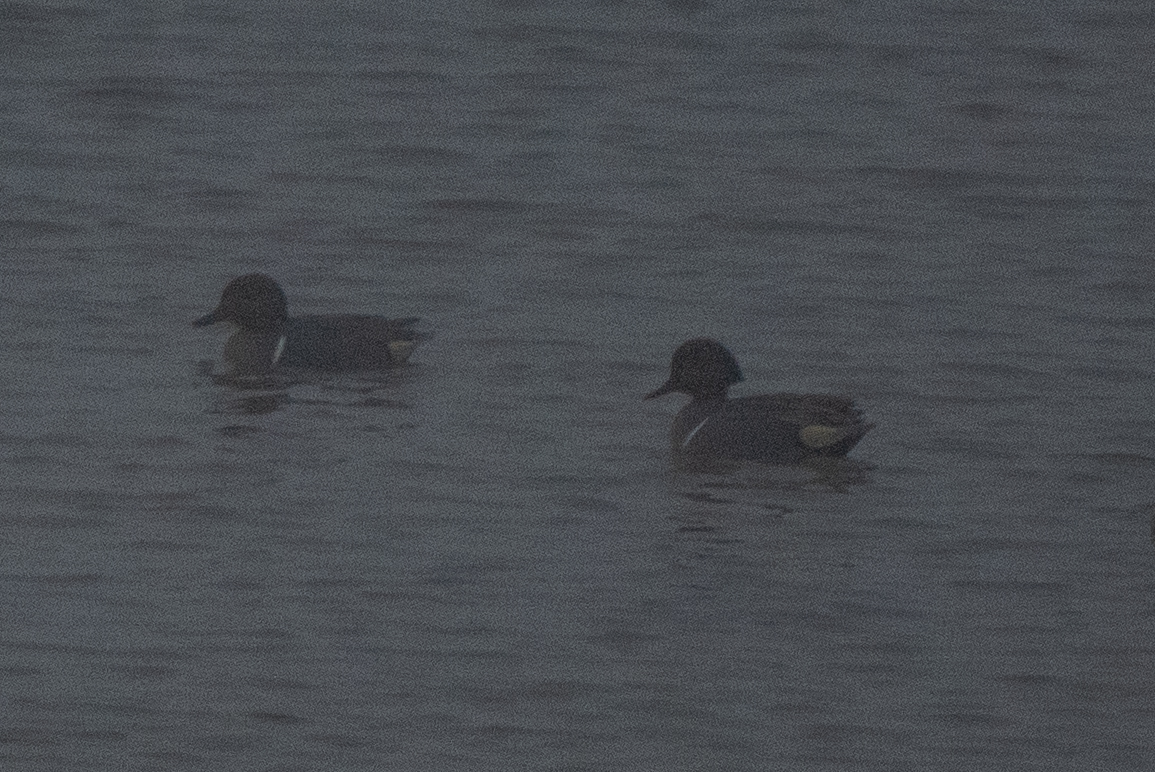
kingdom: Animalia
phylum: Chordata
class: Aves
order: Anseriformes
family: Anatidae
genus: Anas
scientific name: Anas carolinensis
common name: Green-winged teal
